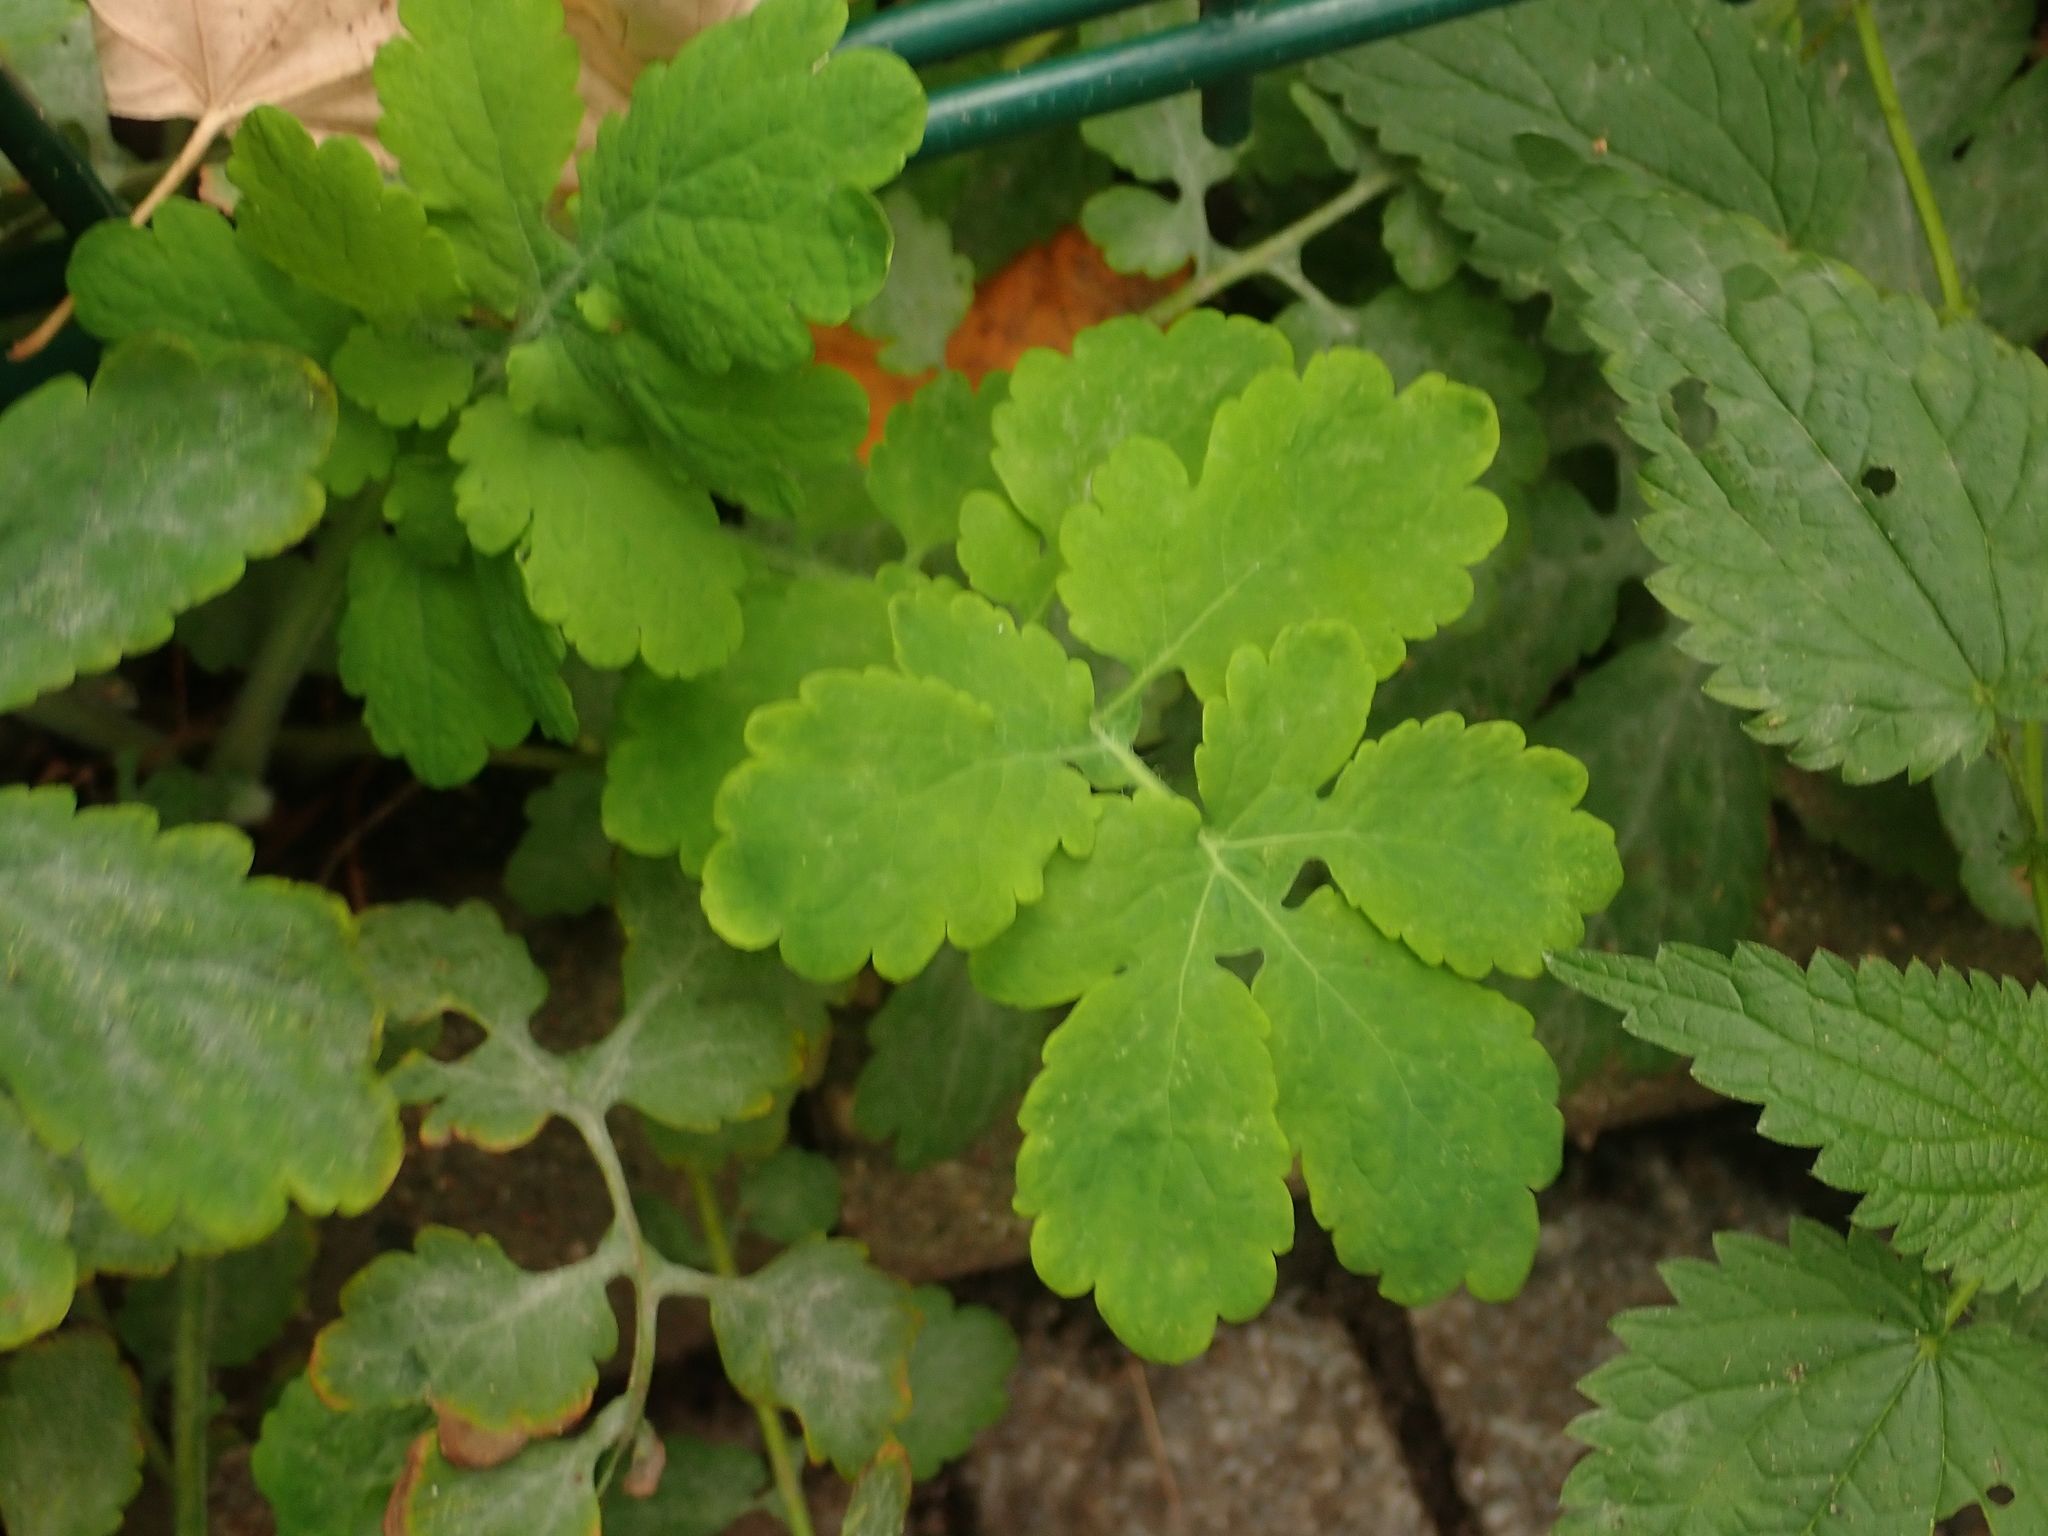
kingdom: Plantae
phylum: Tracheophyta
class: Magnoliopsida
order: Ranunculales
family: Papaveraceae
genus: Chelidonium
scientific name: Chelidonium majus
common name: Greater celandine
